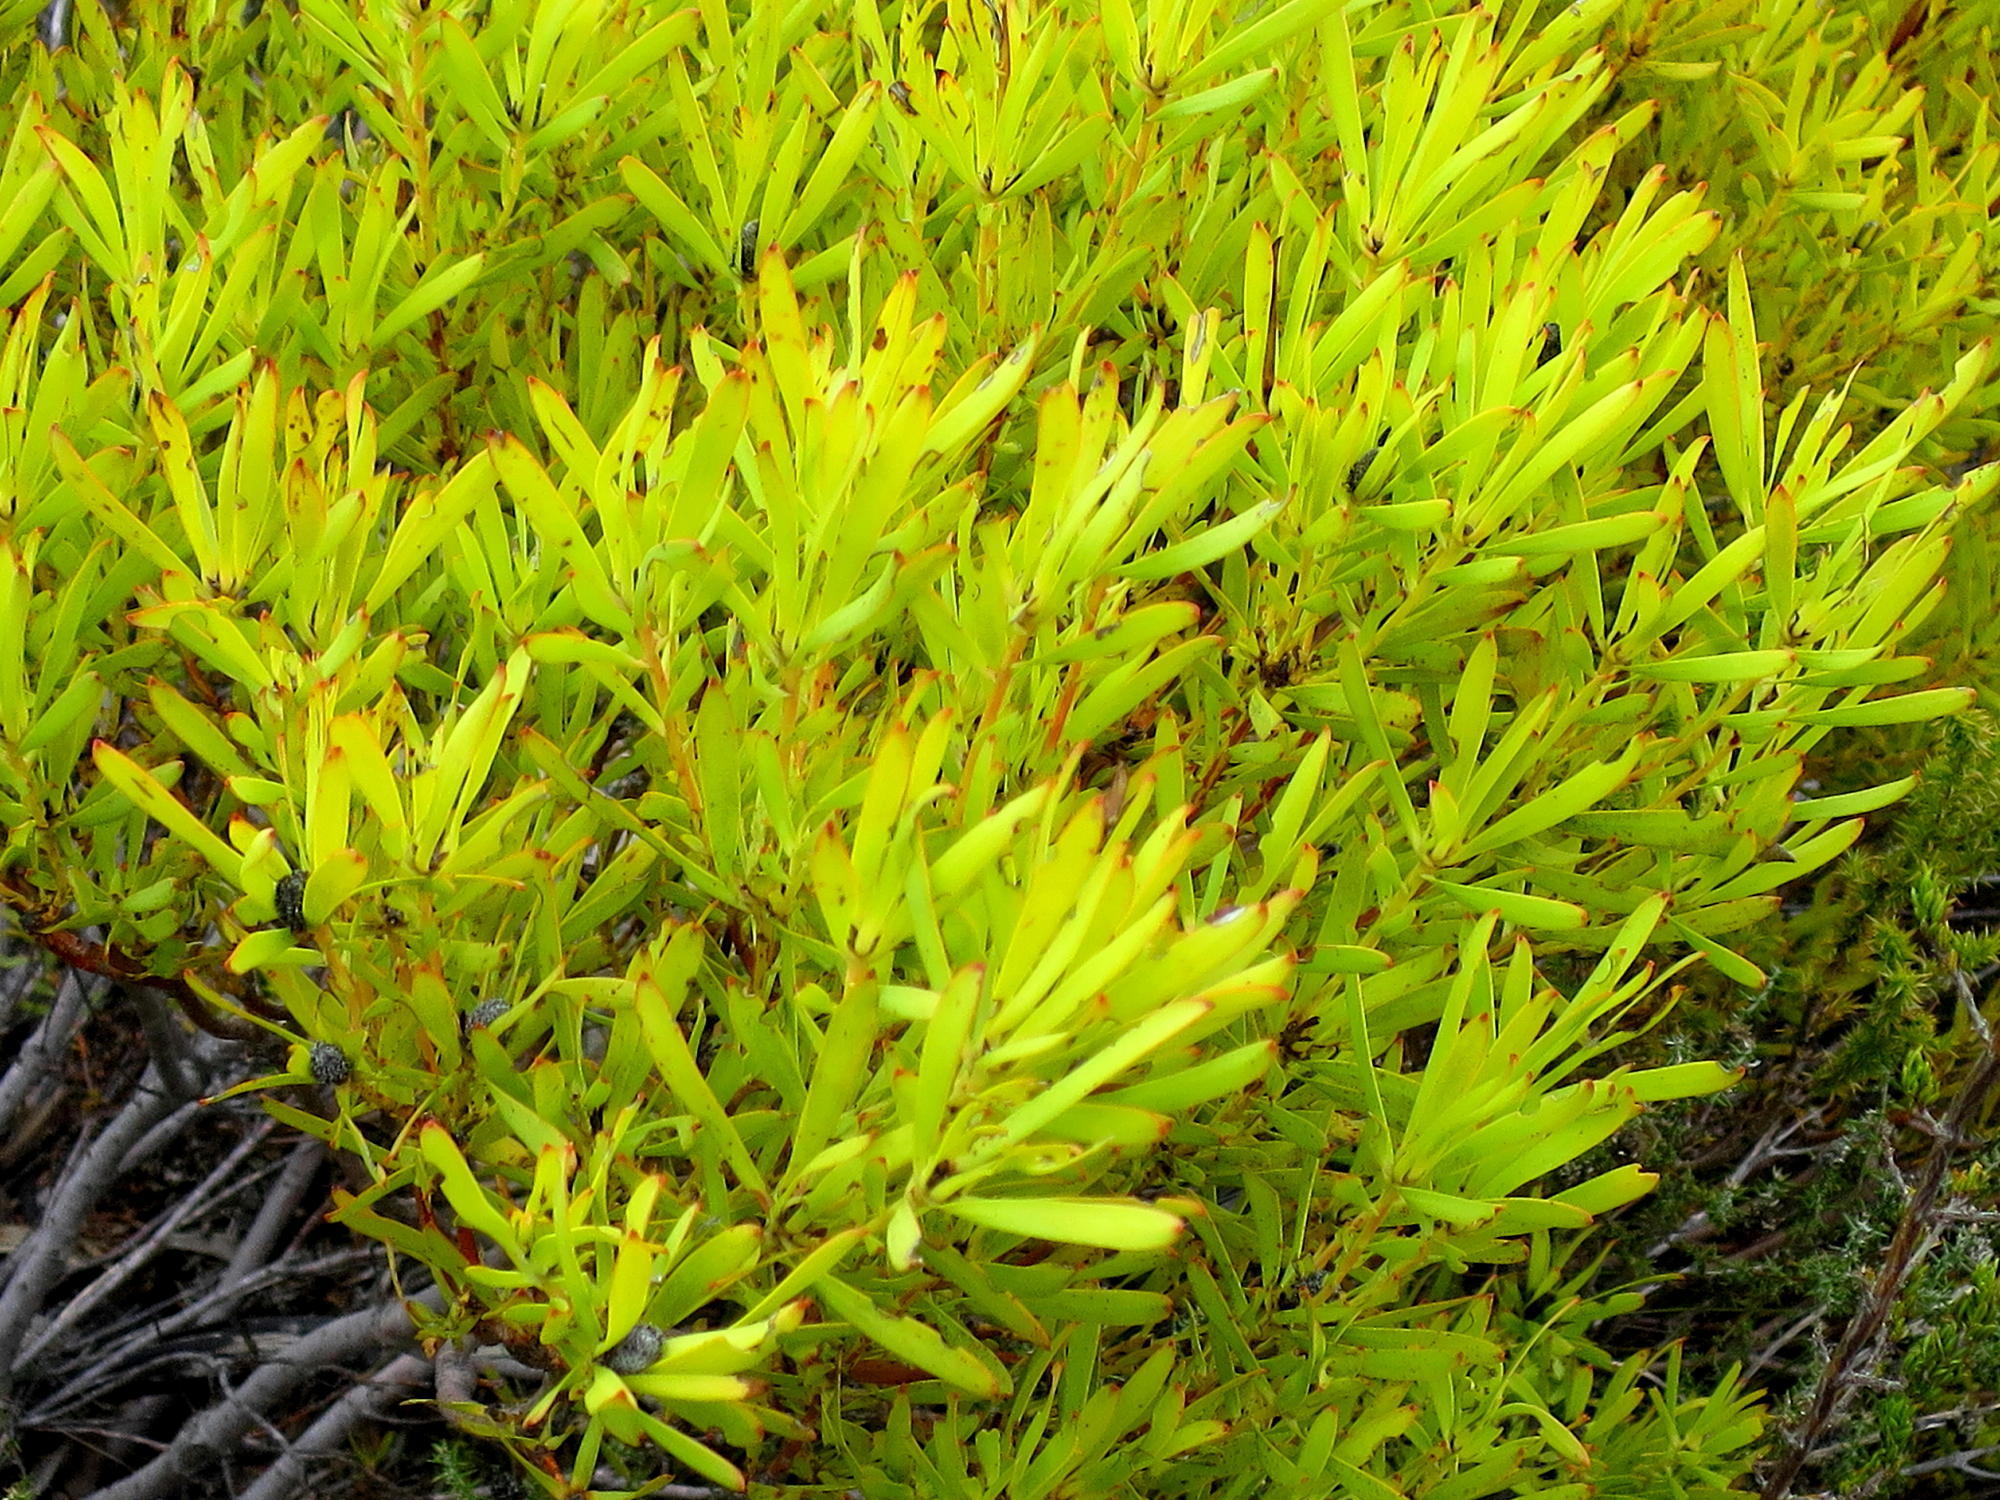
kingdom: Plantae
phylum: Tracheophyta
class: Magnoliopsida
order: Proteales
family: Proteaceae
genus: Leucadendron
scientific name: Leucadendron salignum
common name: Common sunshine conebush
